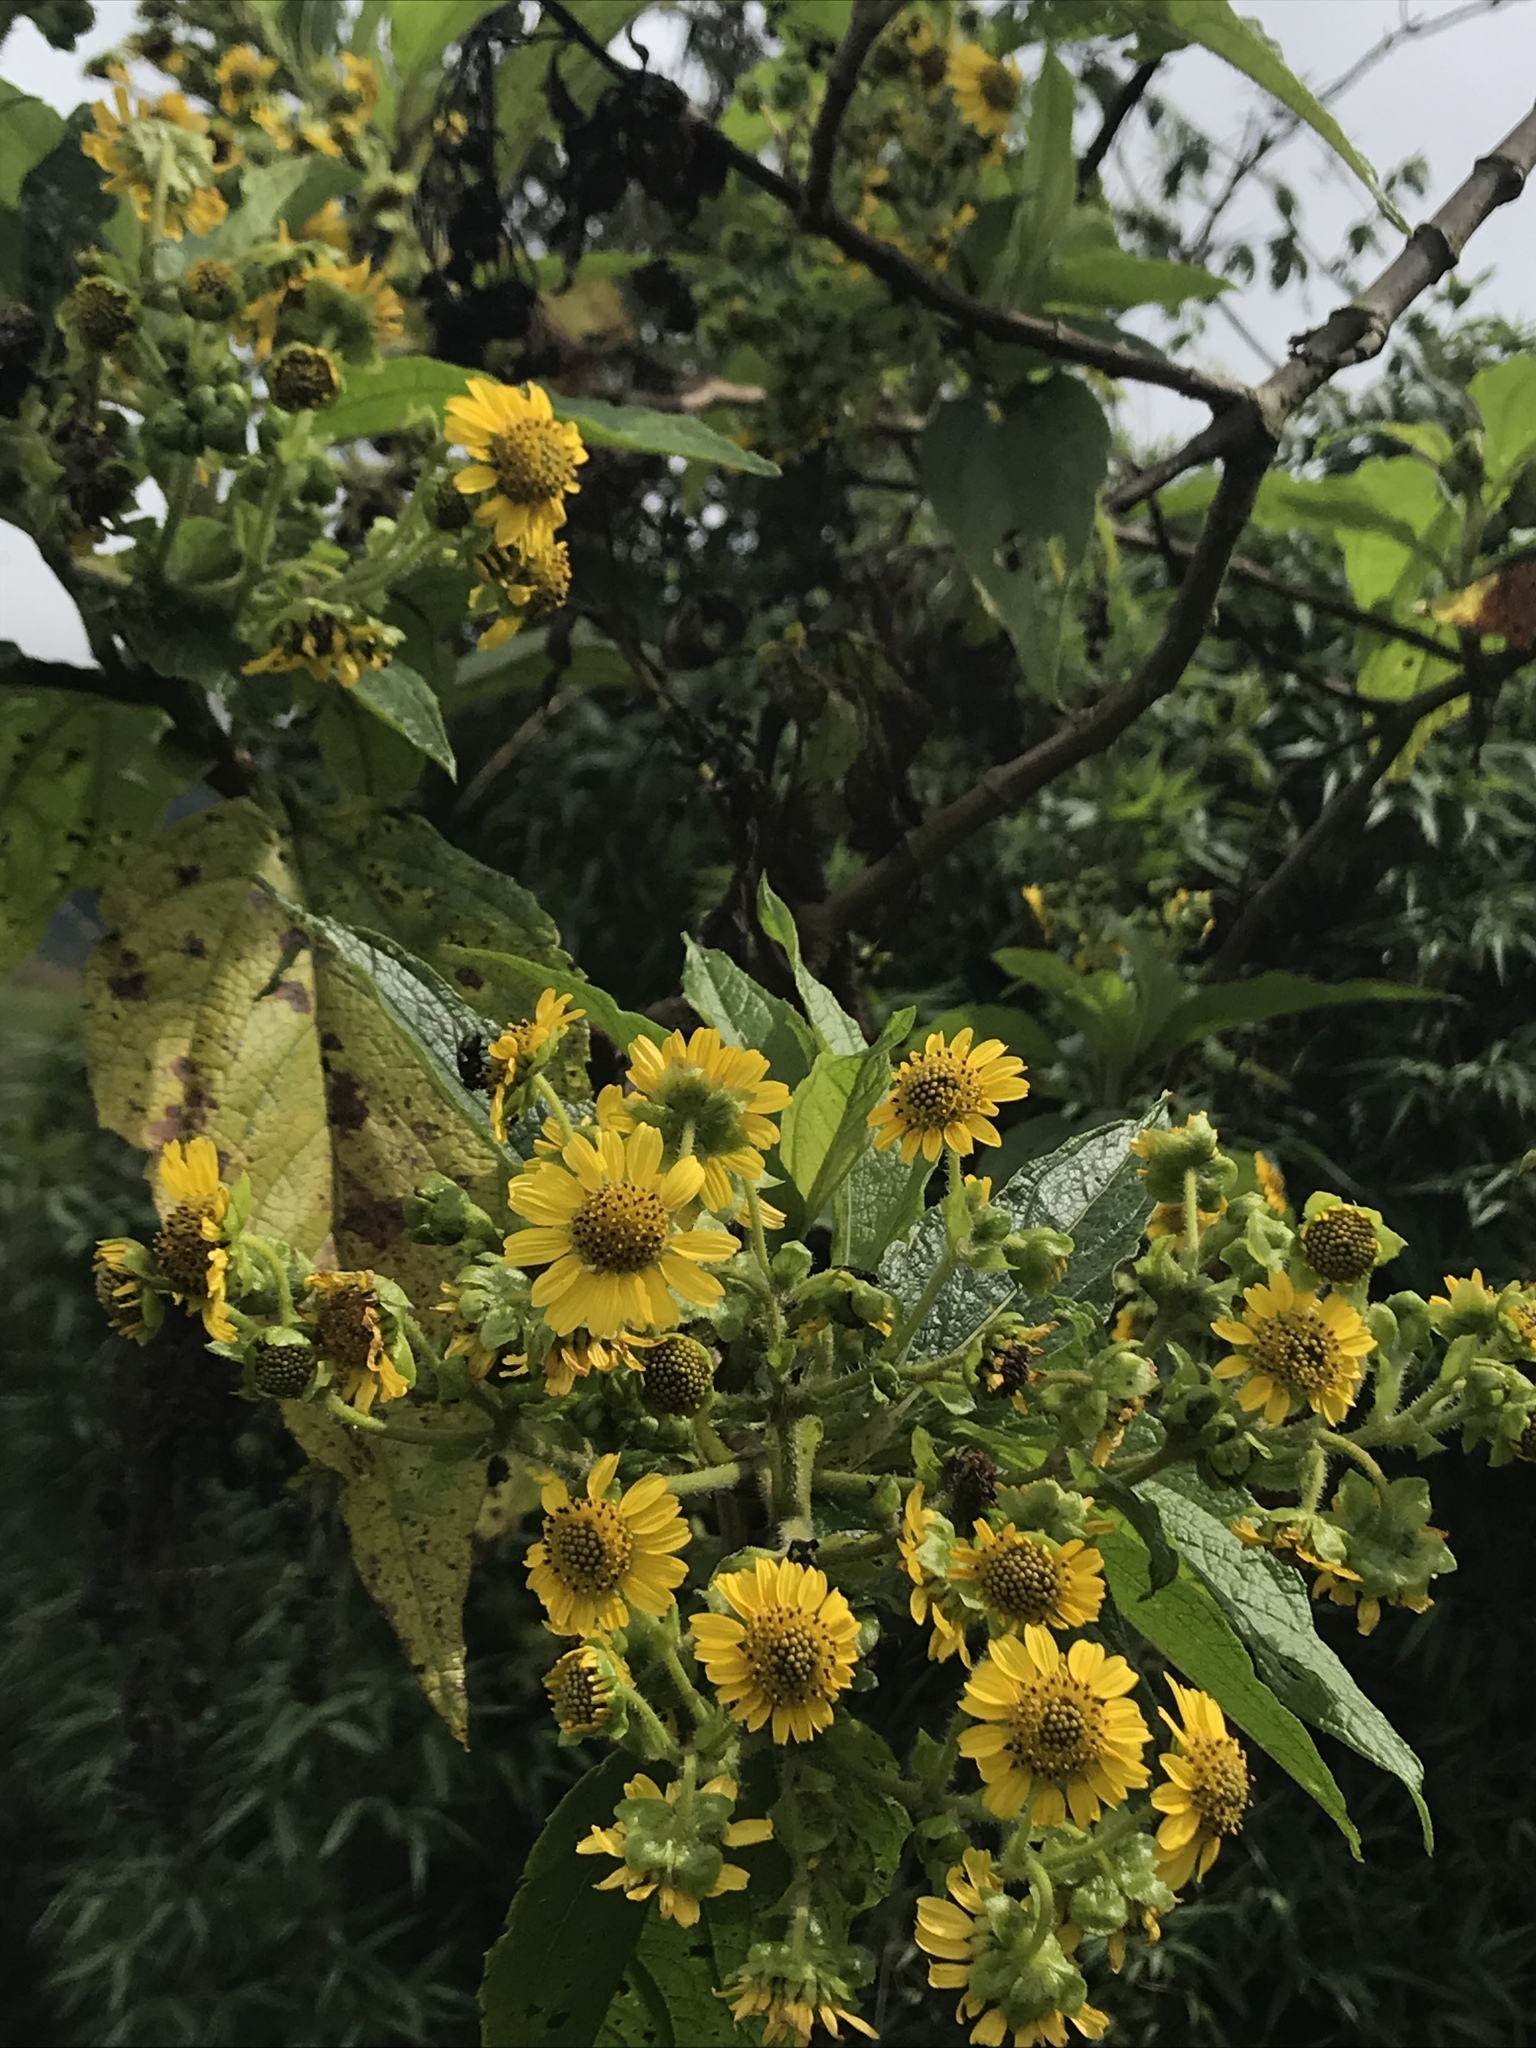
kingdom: Plantae
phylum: Tracheophyta
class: Magnoliopsida
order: Asterales
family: Asteraceae
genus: Smallanthus
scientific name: Smallanthus pyramidalis
